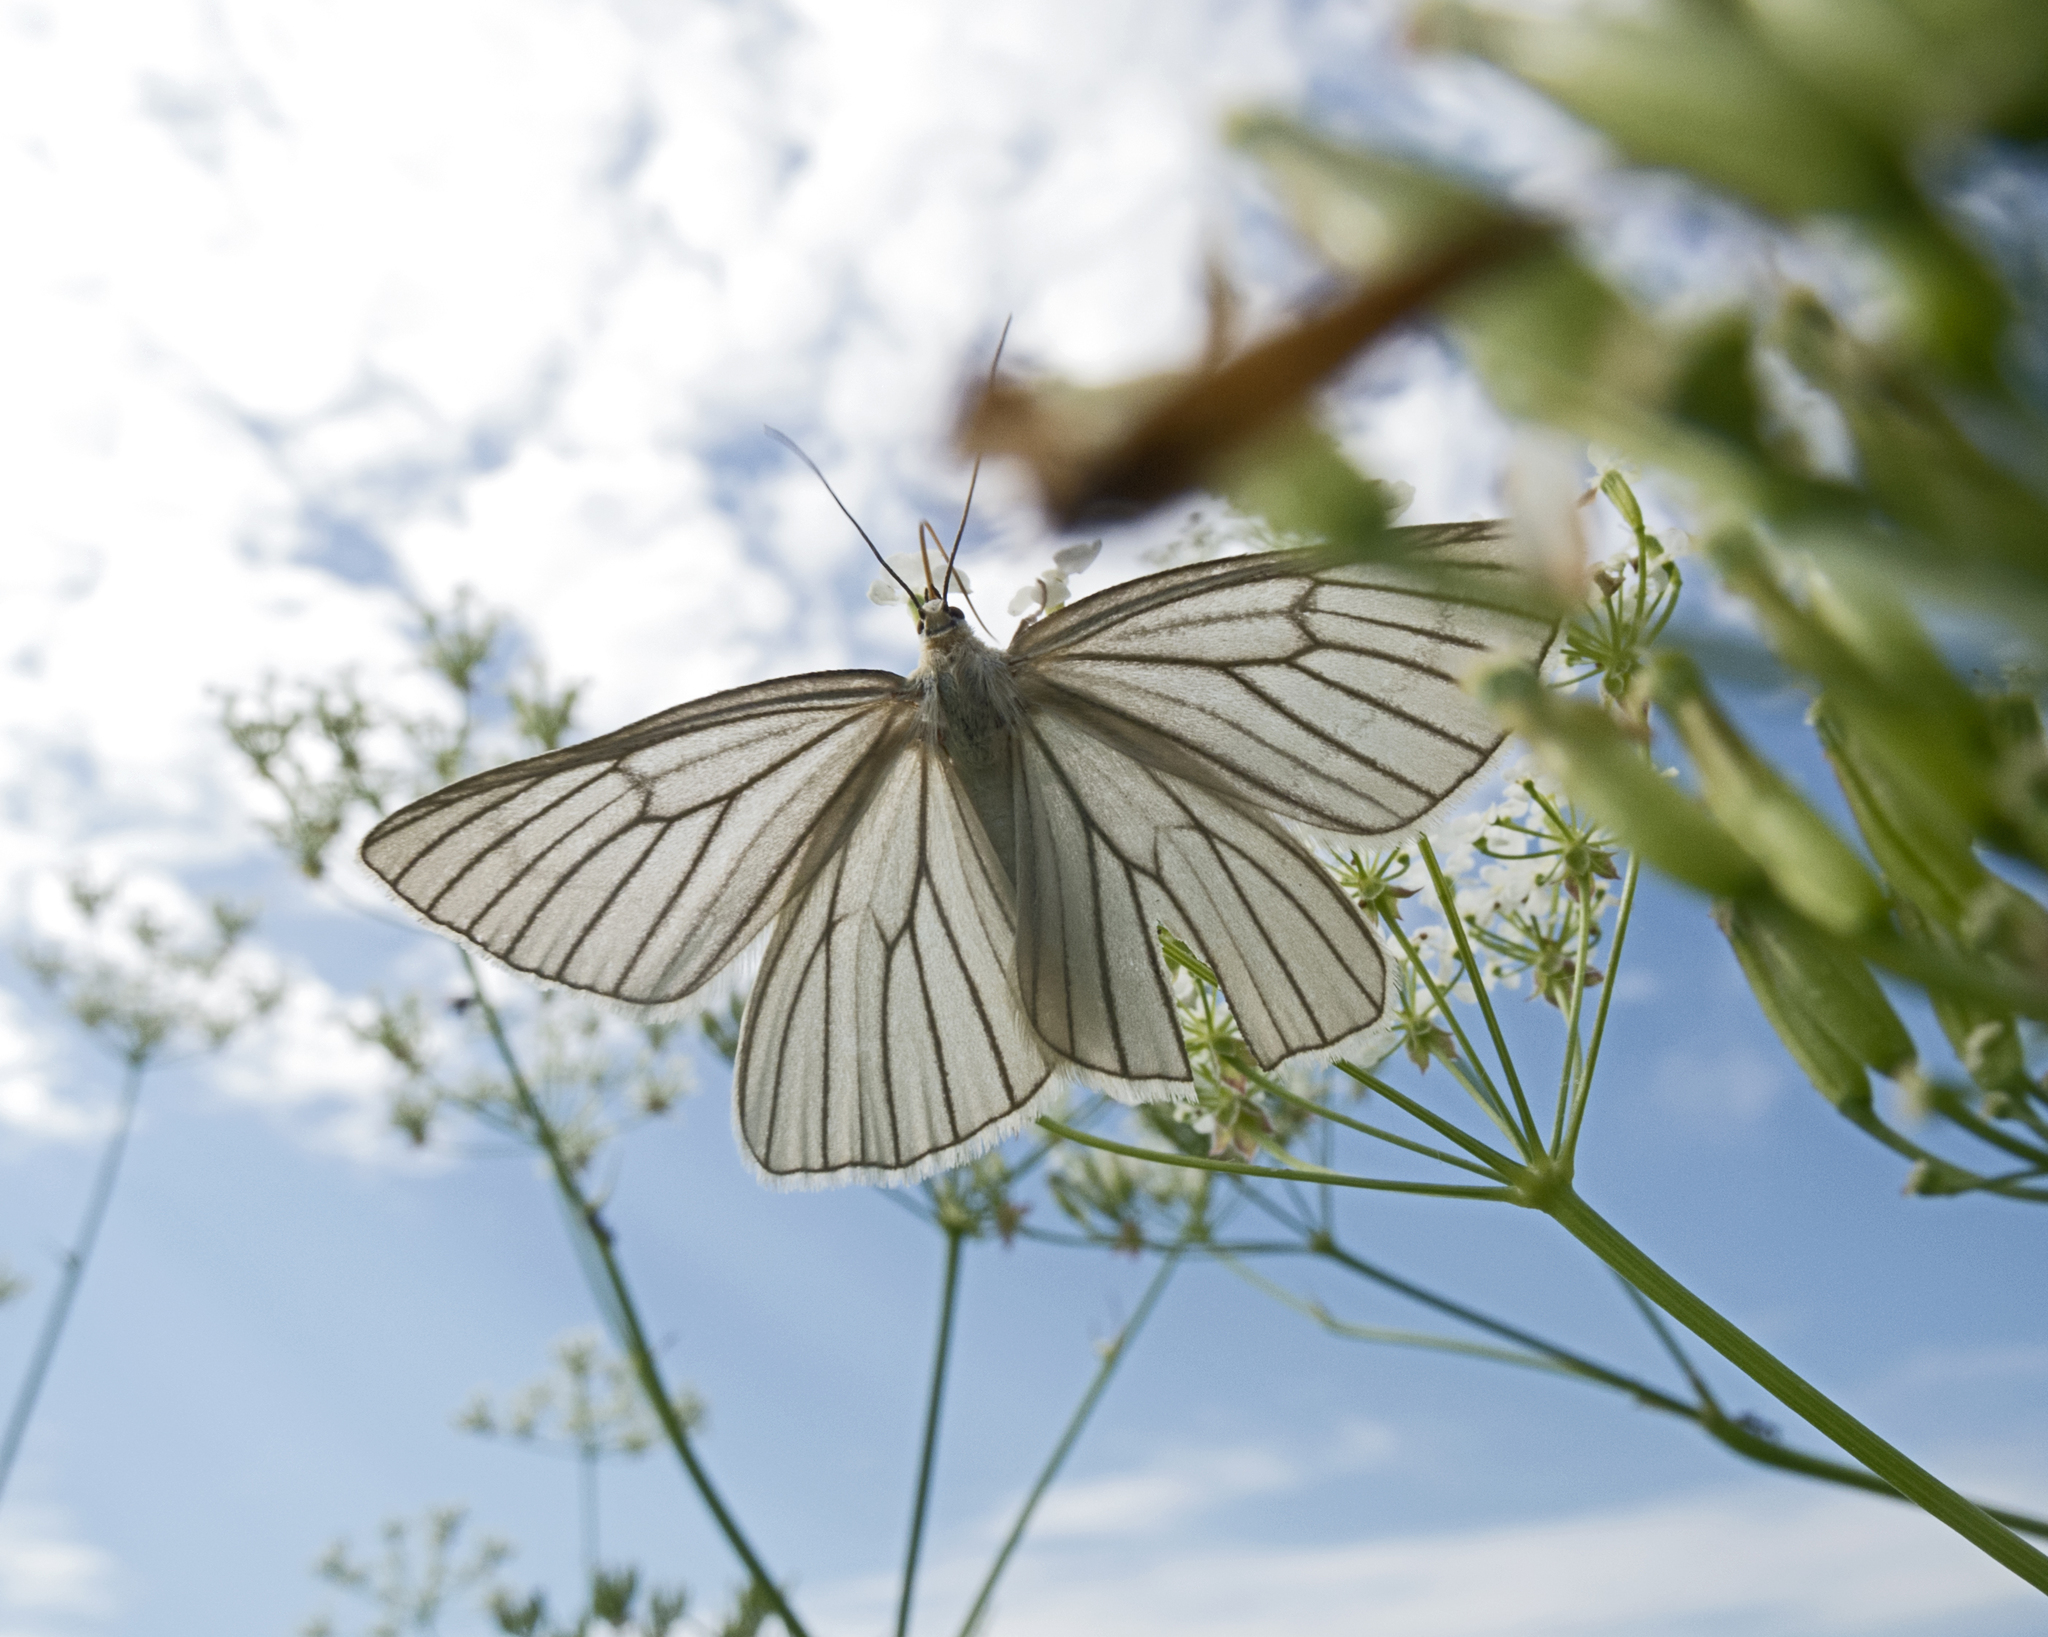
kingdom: Animalia
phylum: Arthropoda
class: Insecta
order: Lepidoptera
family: Geometridae
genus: Siona
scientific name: Siona lineata
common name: Black-veined moth
